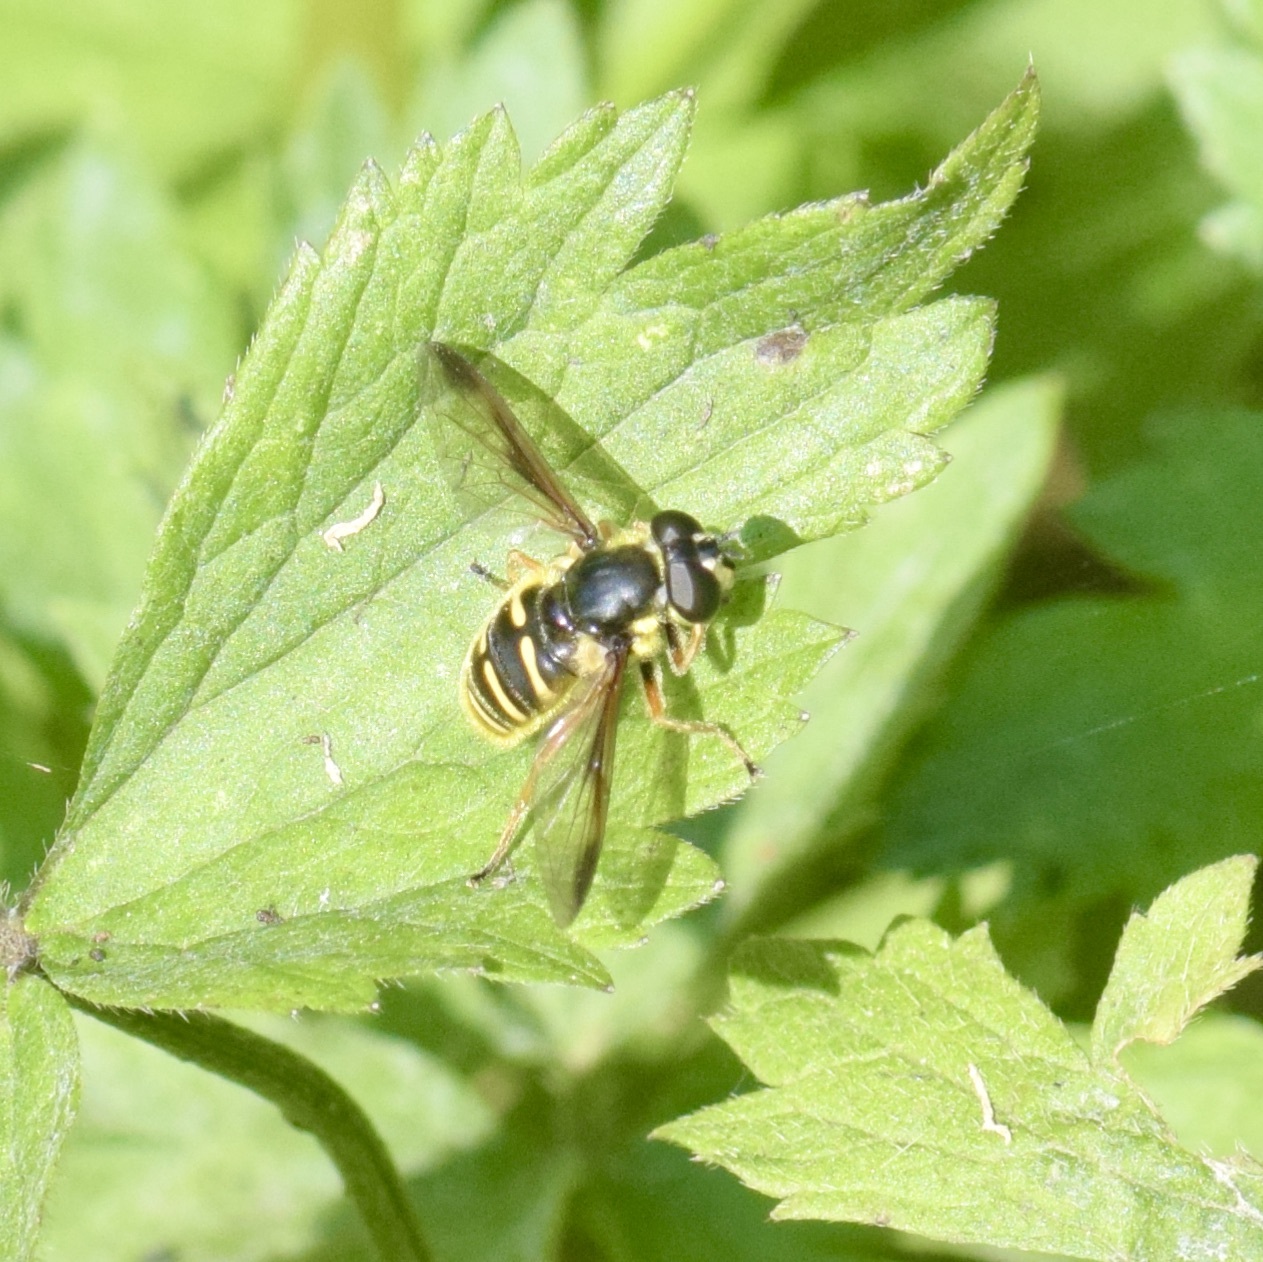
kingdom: Animalia
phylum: Arthropoda
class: Insecta
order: Diptera
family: Syrphidae
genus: Sericomyia
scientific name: Sericomyia chrysotoxoides
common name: Oblique-banded pond fly
